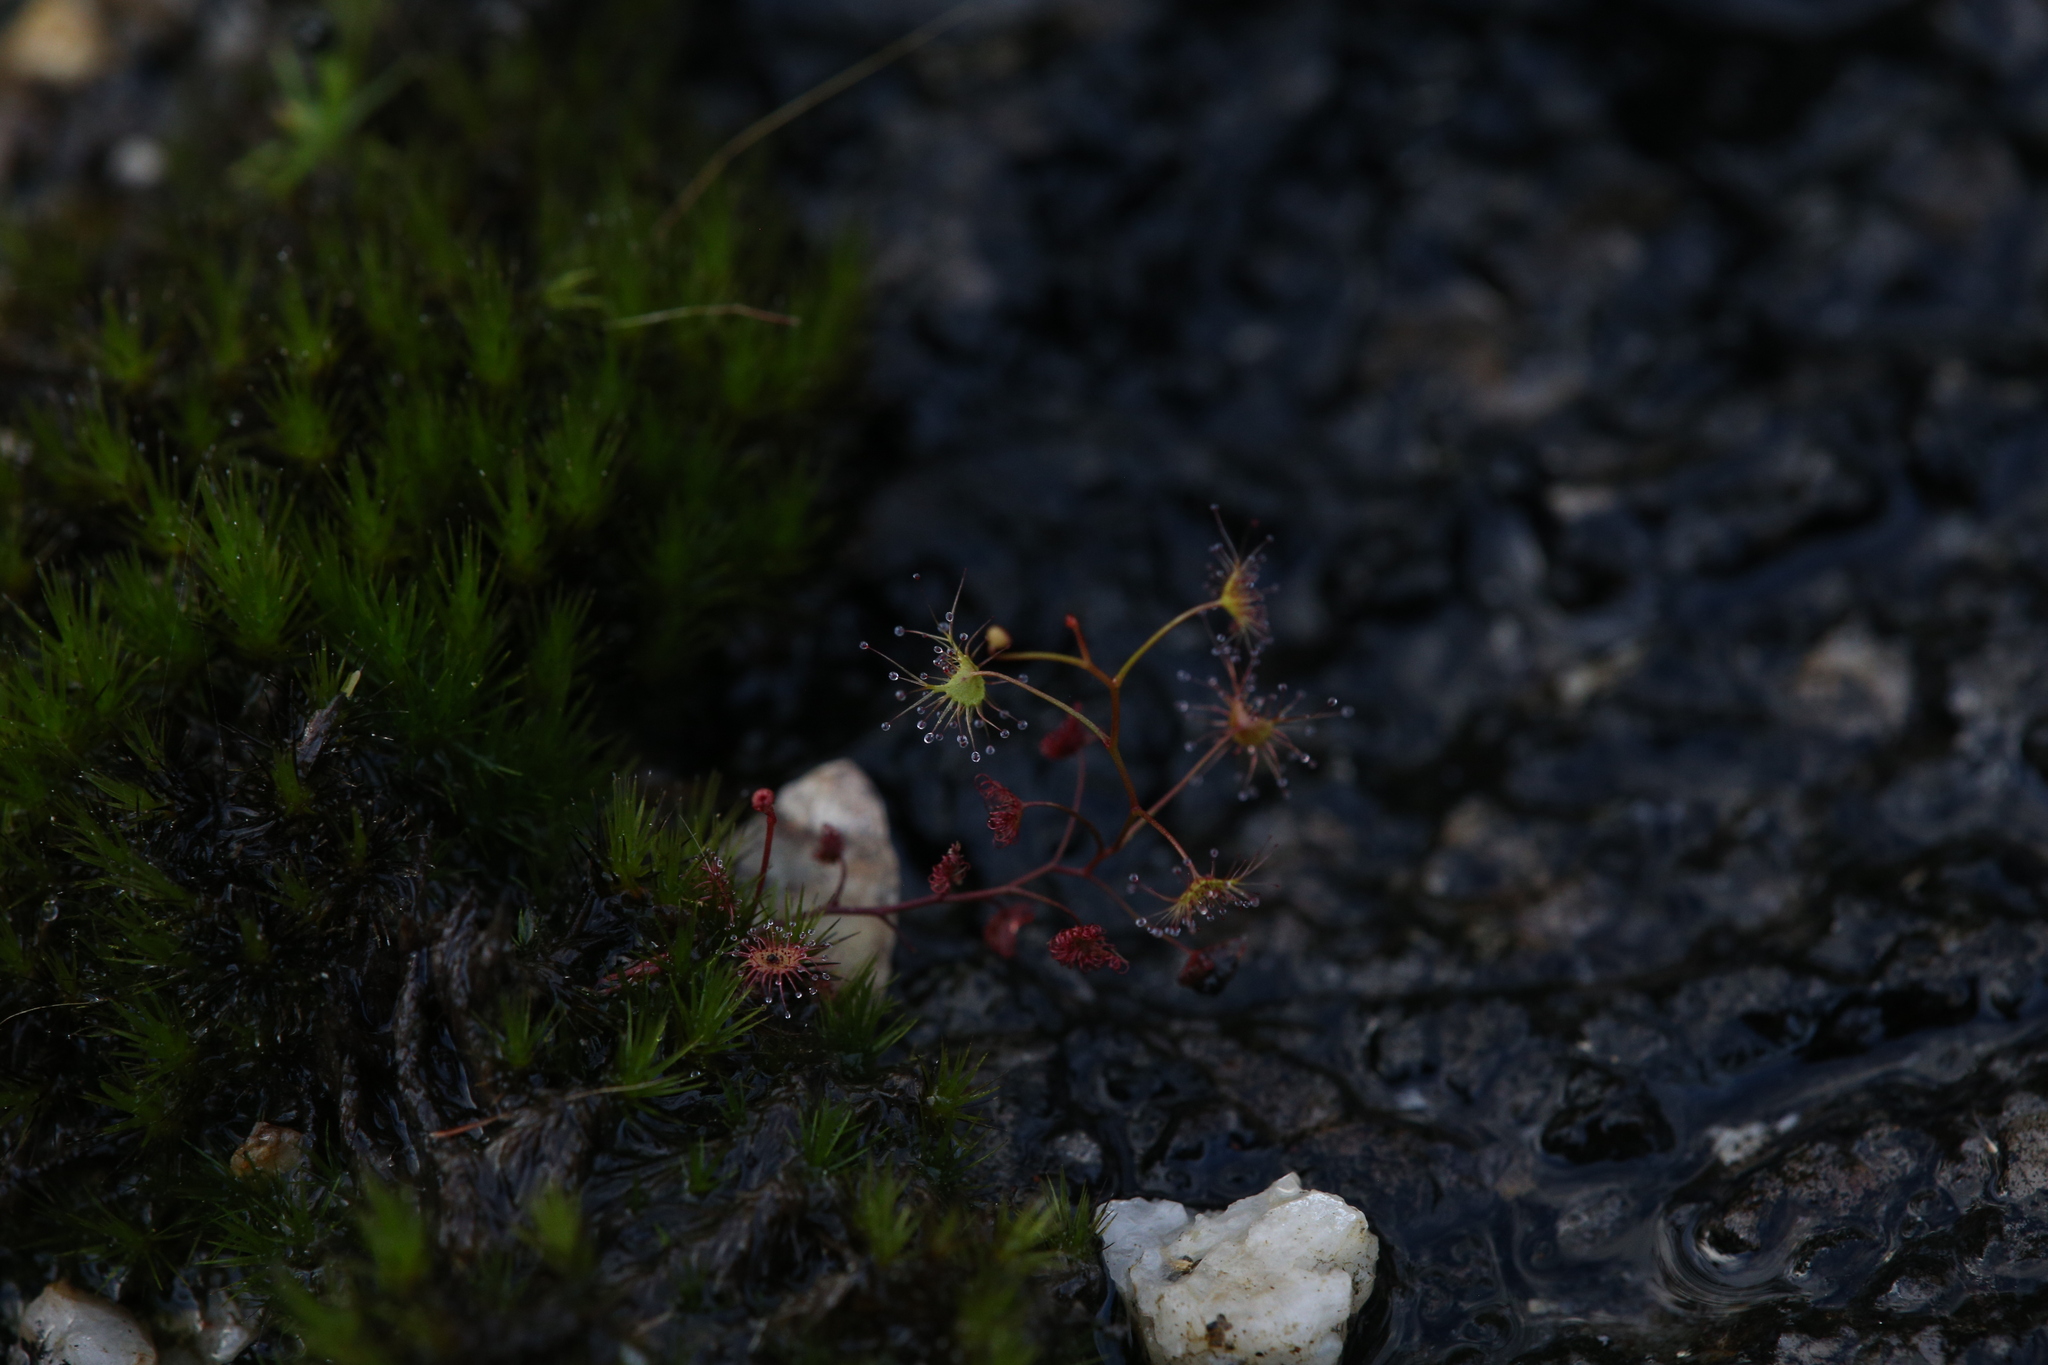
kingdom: Plantae
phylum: Tracheophyta
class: Magnoliopsida
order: Caryophyllales
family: Droseraceae
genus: Drosera
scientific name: Drosera peltata
